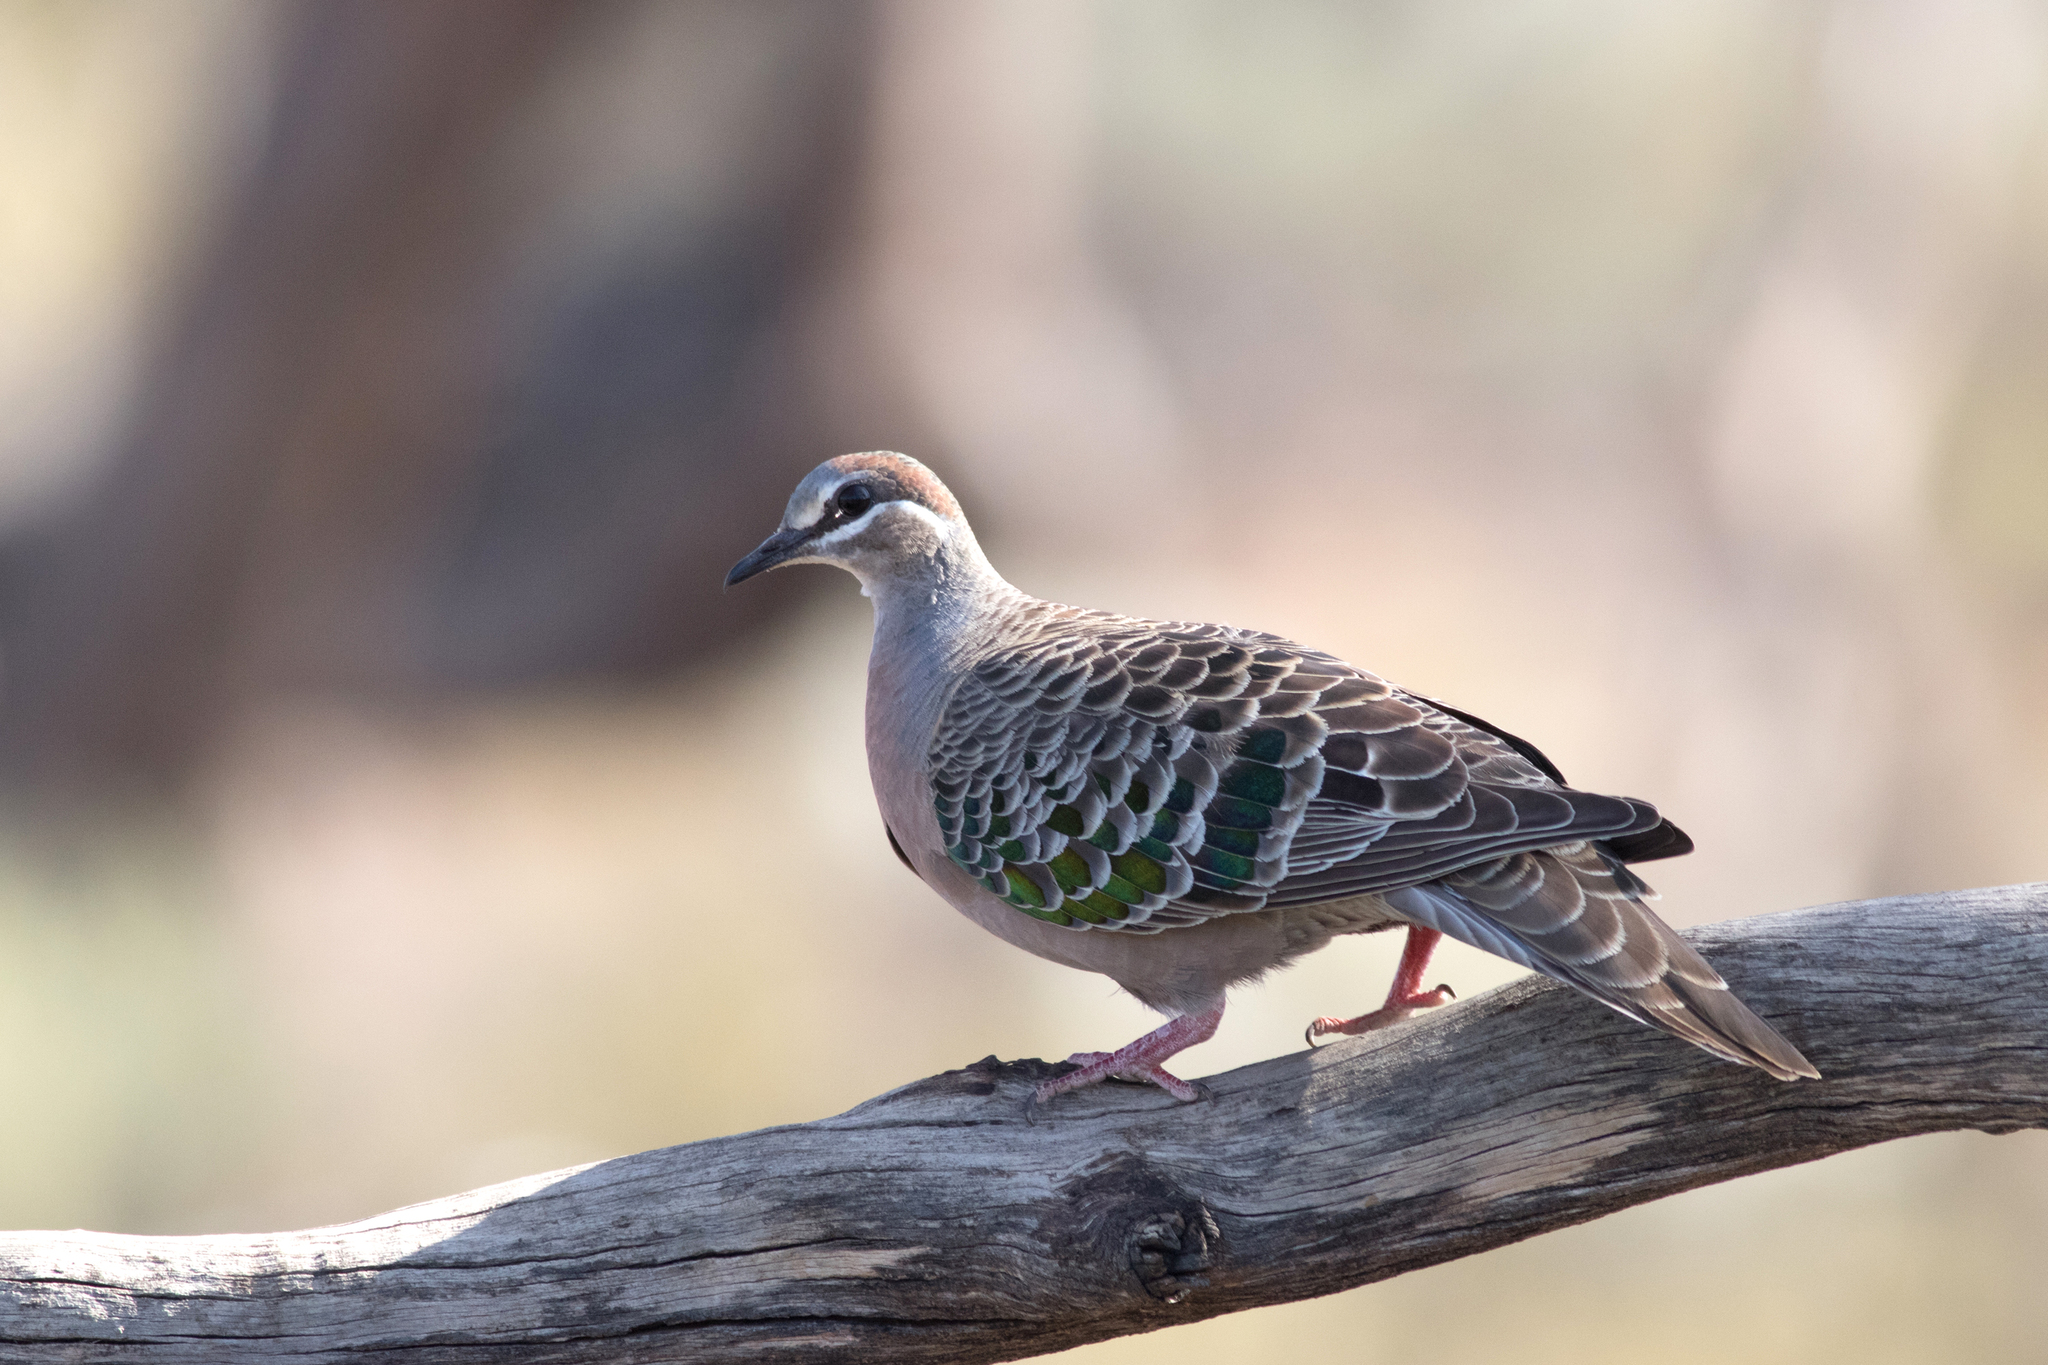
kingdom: Animalia
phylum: Chordata
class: Aves
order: Columbiformes
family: Columbidae
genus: Phaps
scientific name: Phaps chalcoptera
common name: Common bronzewing
